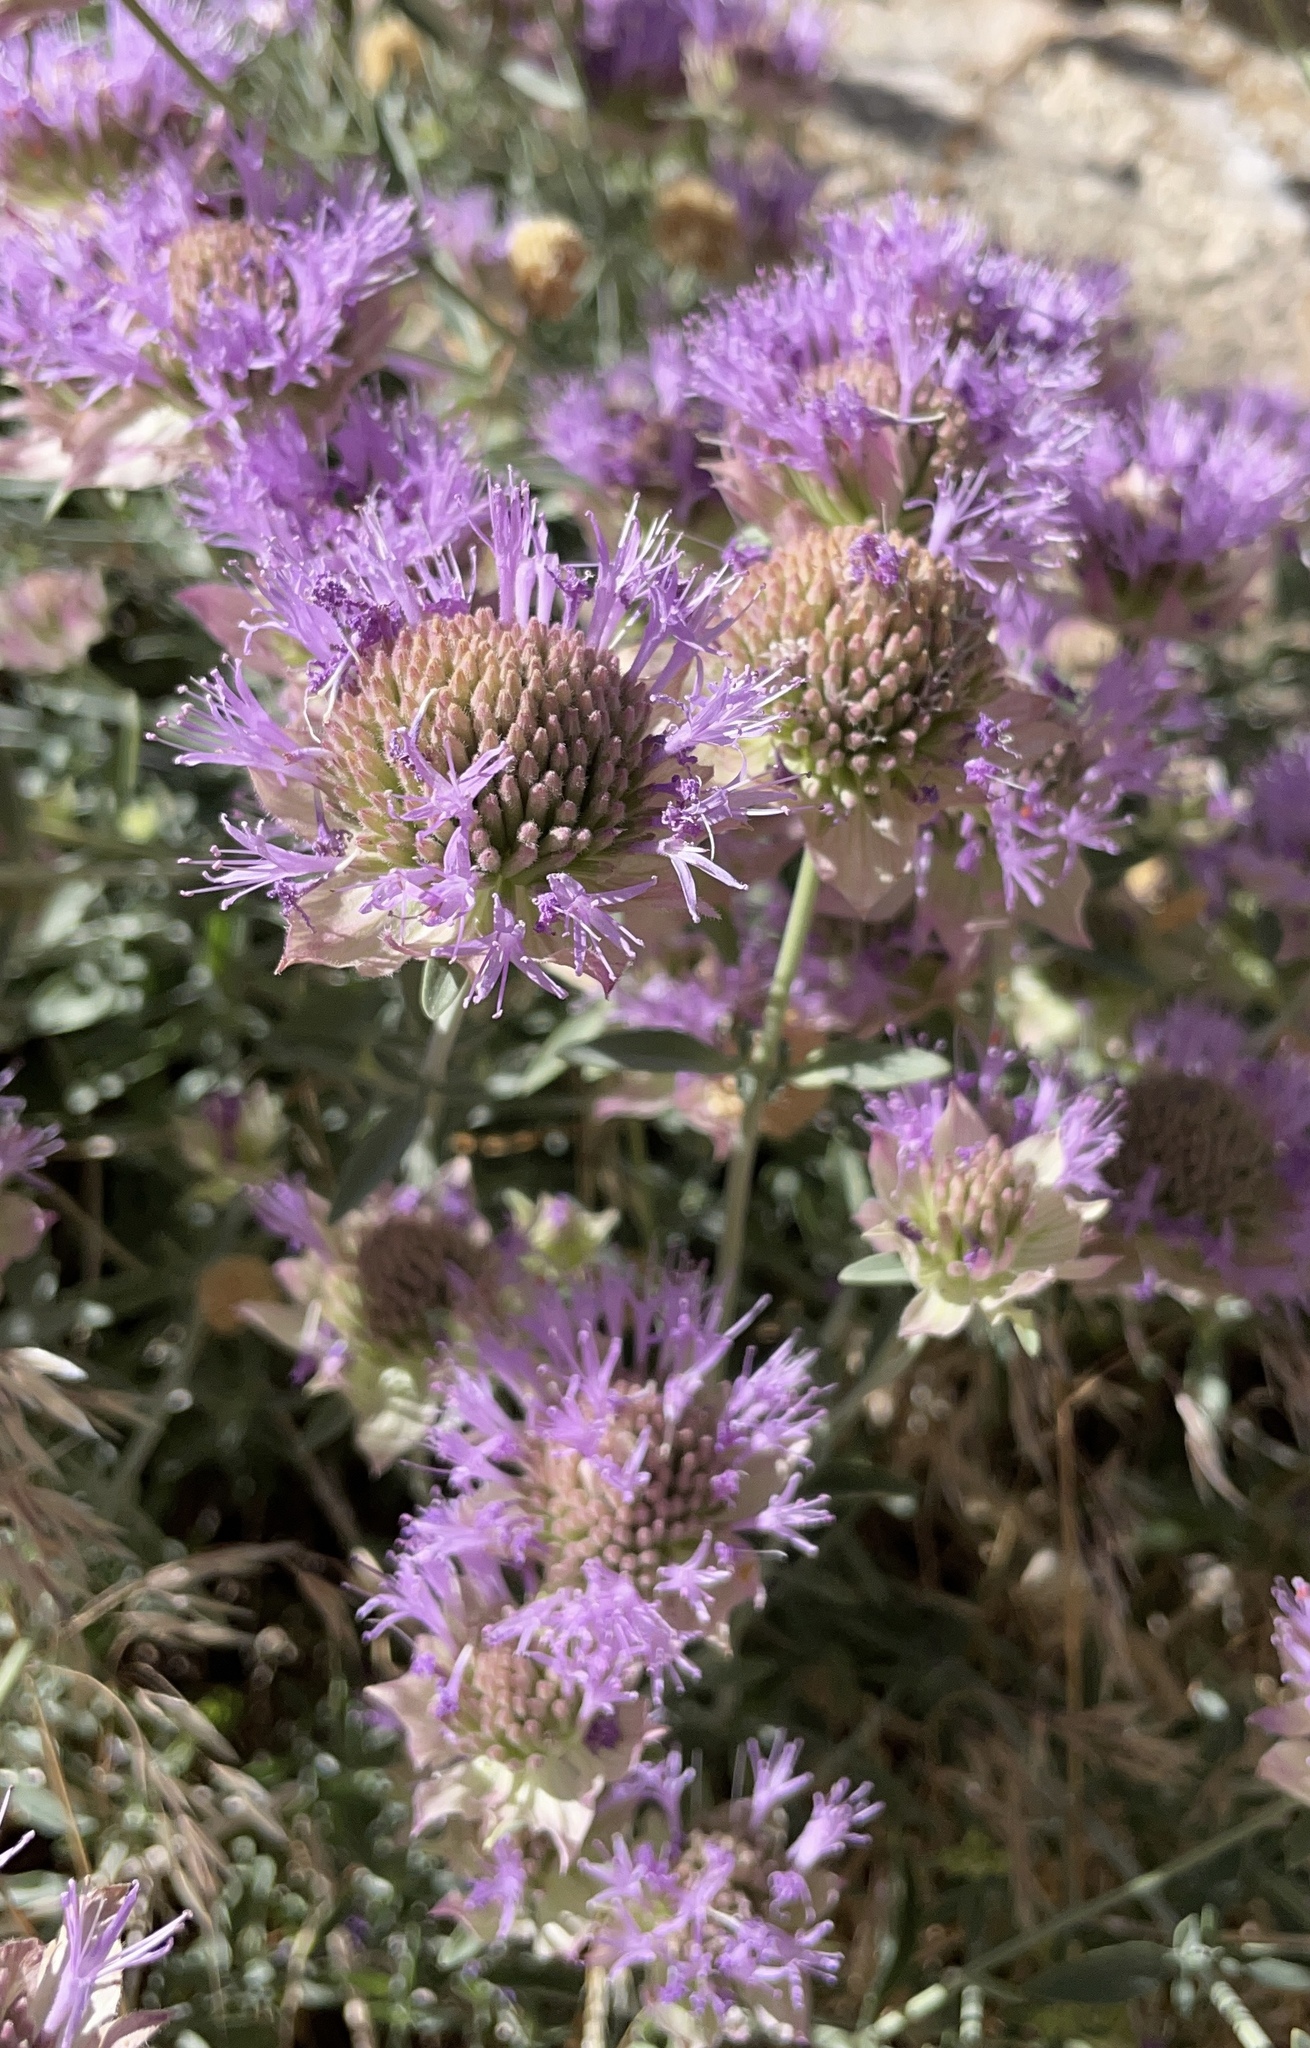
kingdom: Plantae
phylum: Tracheophyta
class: Magnoliopsida
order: Lamiales
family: Lamiaceae
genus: Monardella
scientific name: Monardella odoratissima
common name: Pacific monardella
